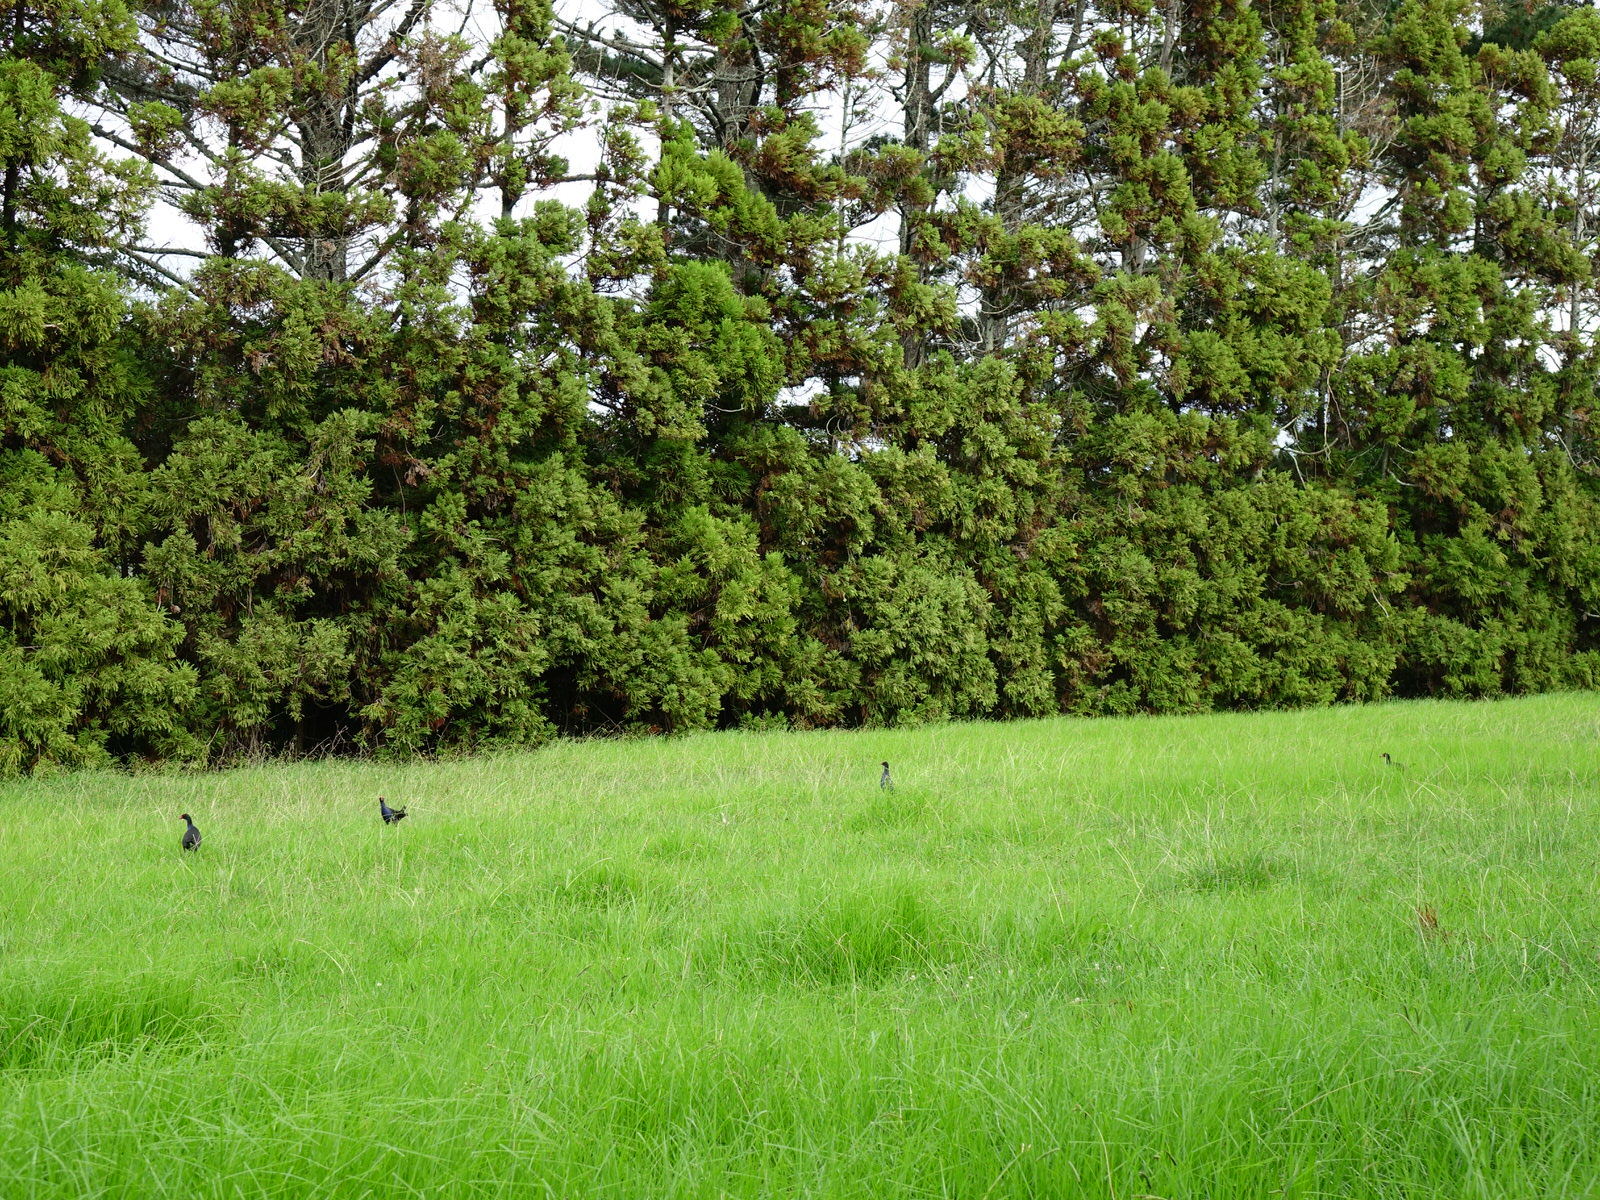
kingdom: Animalia
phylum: Chordata
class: Aves
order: Gruiformes
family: Rallidae
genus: Porphyrio
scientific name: Porphyrio melanotus
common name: Australasian swamphen
